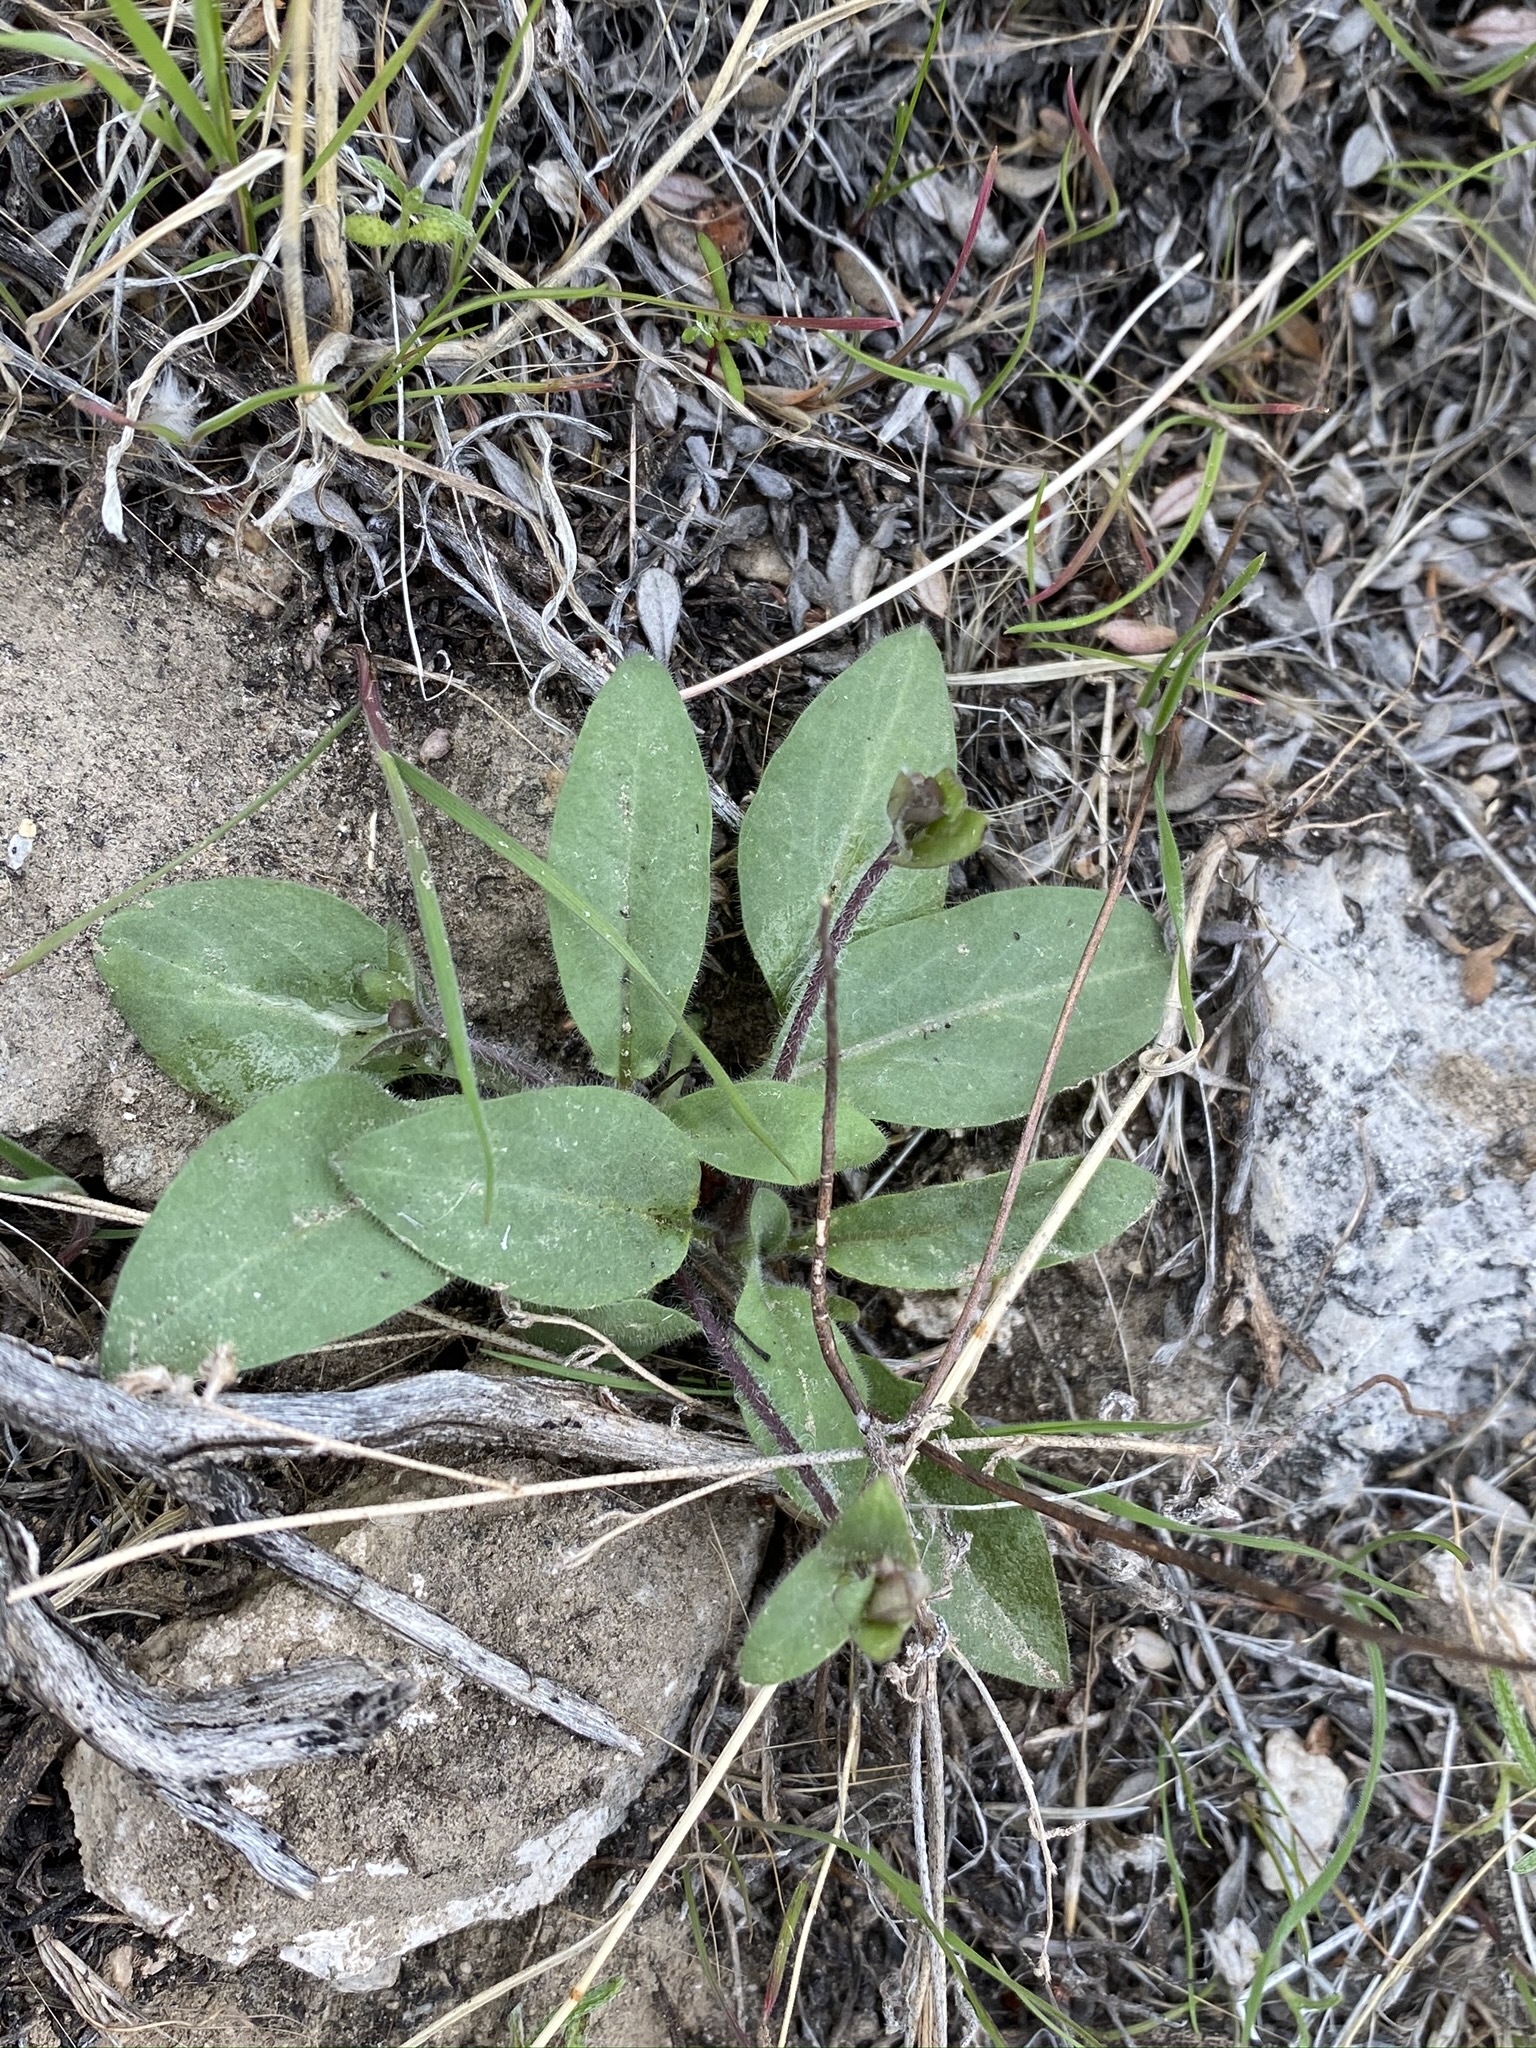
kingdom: Plantae
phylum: Tracheophyta
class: Magnoliopsida
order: Boraginales
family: Hydrophyllaceae
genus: Tricardia
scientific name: Tricardia watsonii
